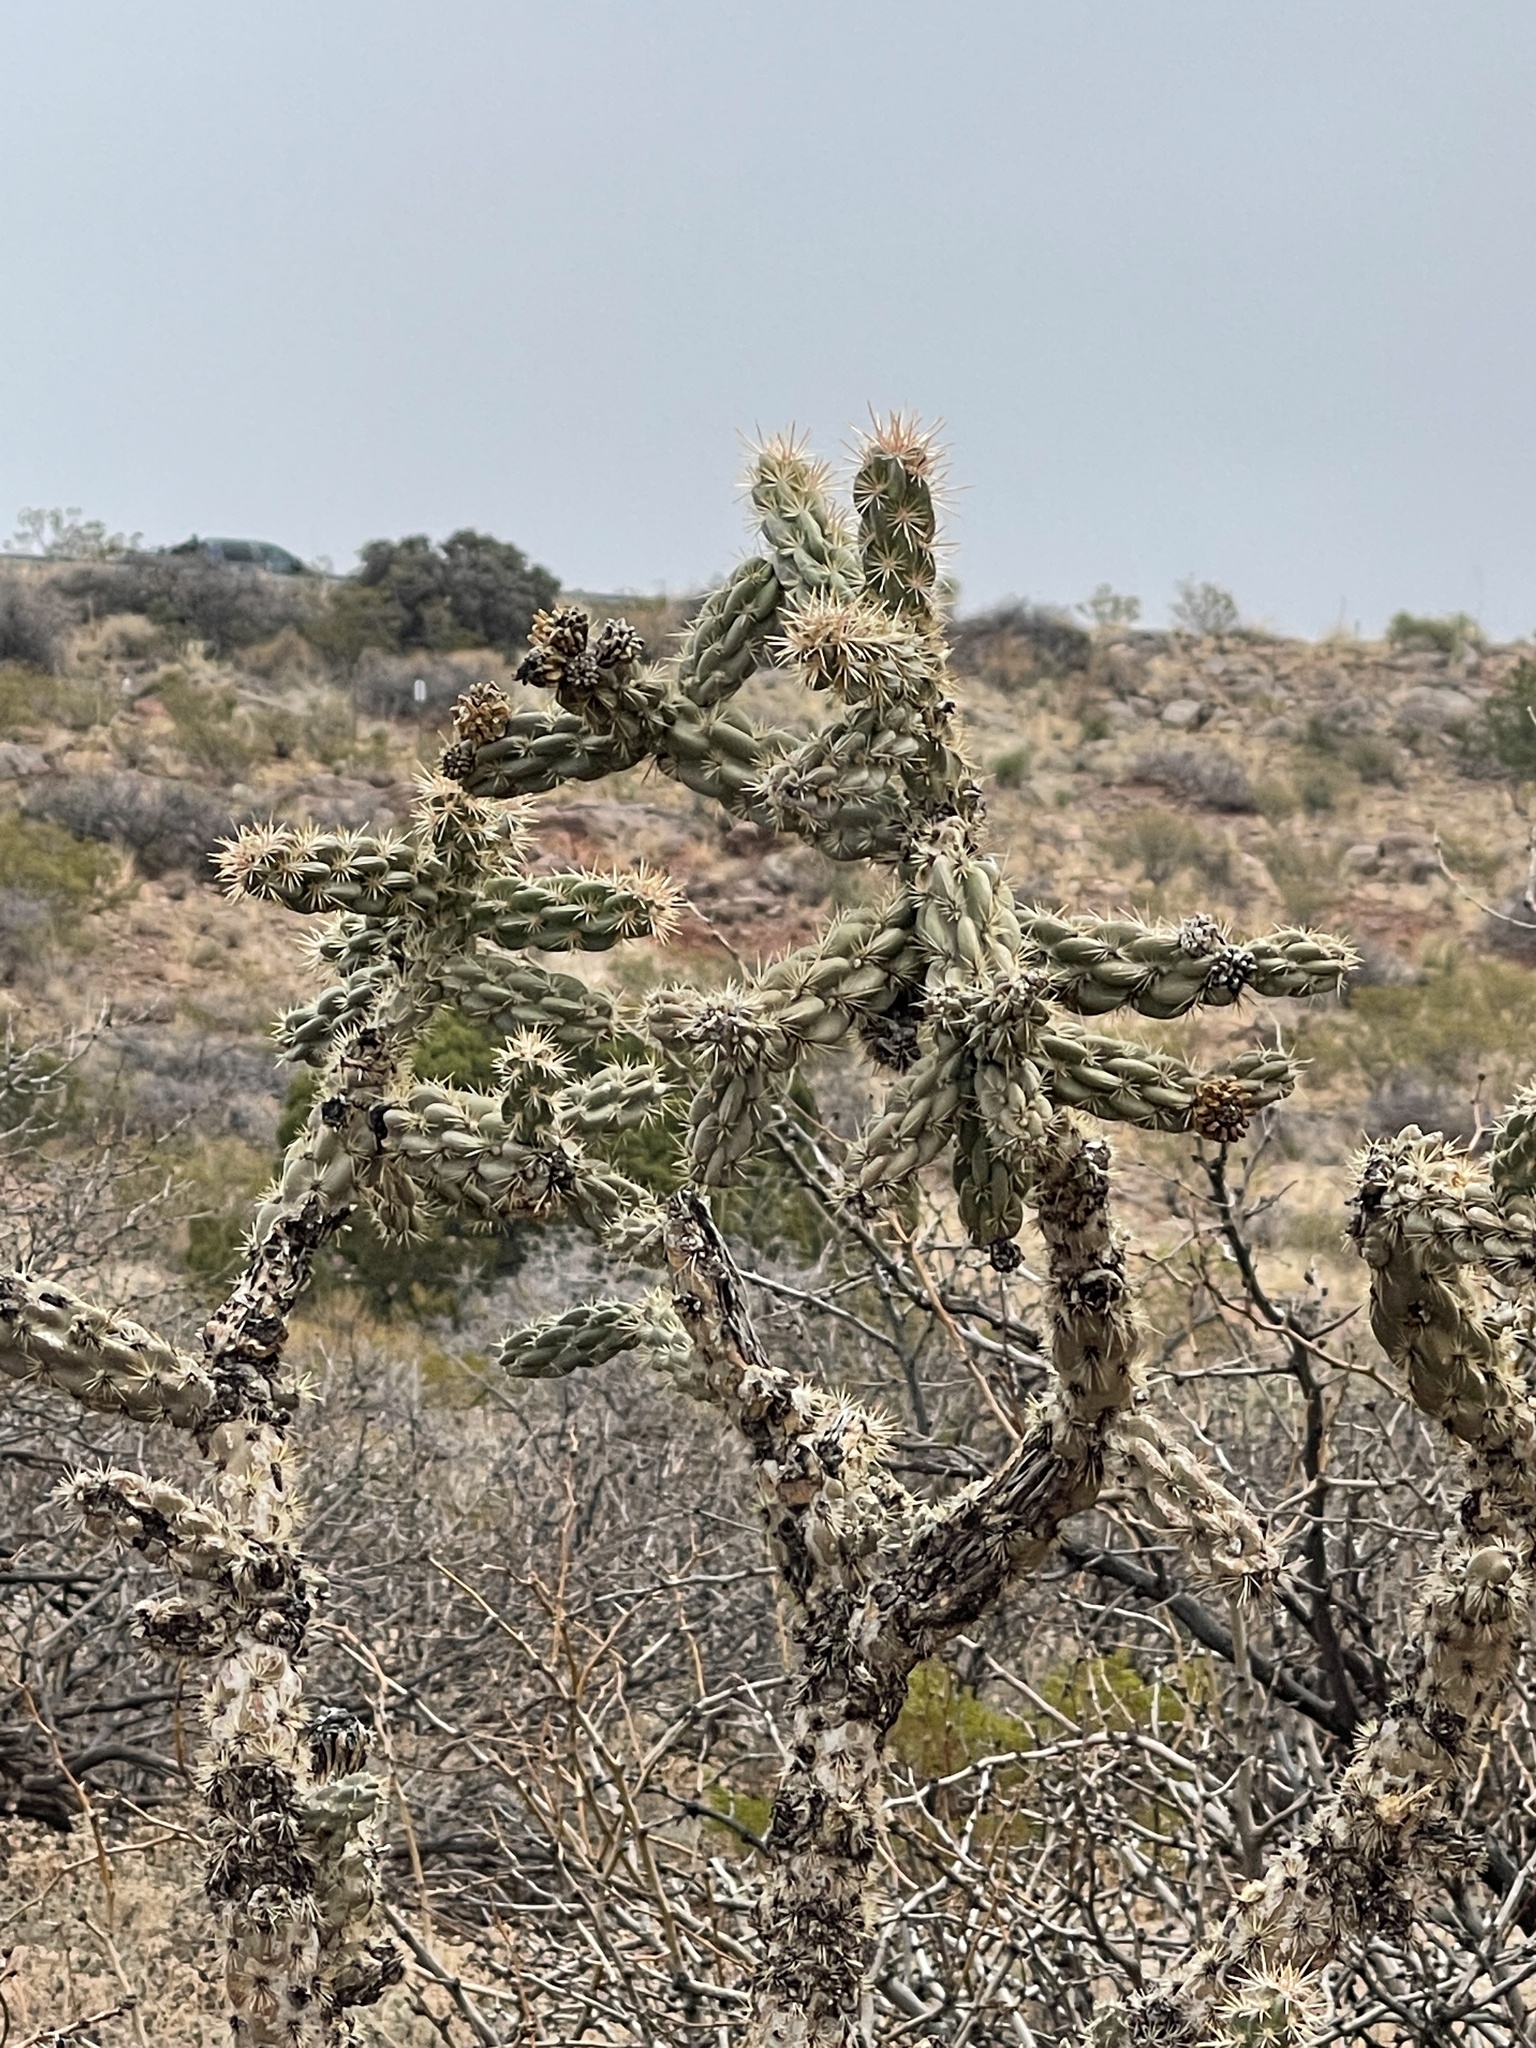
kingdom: Plantae
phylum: Tracheophyta
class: Magnoliopsida
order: Caryophyllales
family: Cactaceae
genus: Cylindropuntia
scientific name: Cylindropuntia imbricata
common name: Candelabrum cactus
